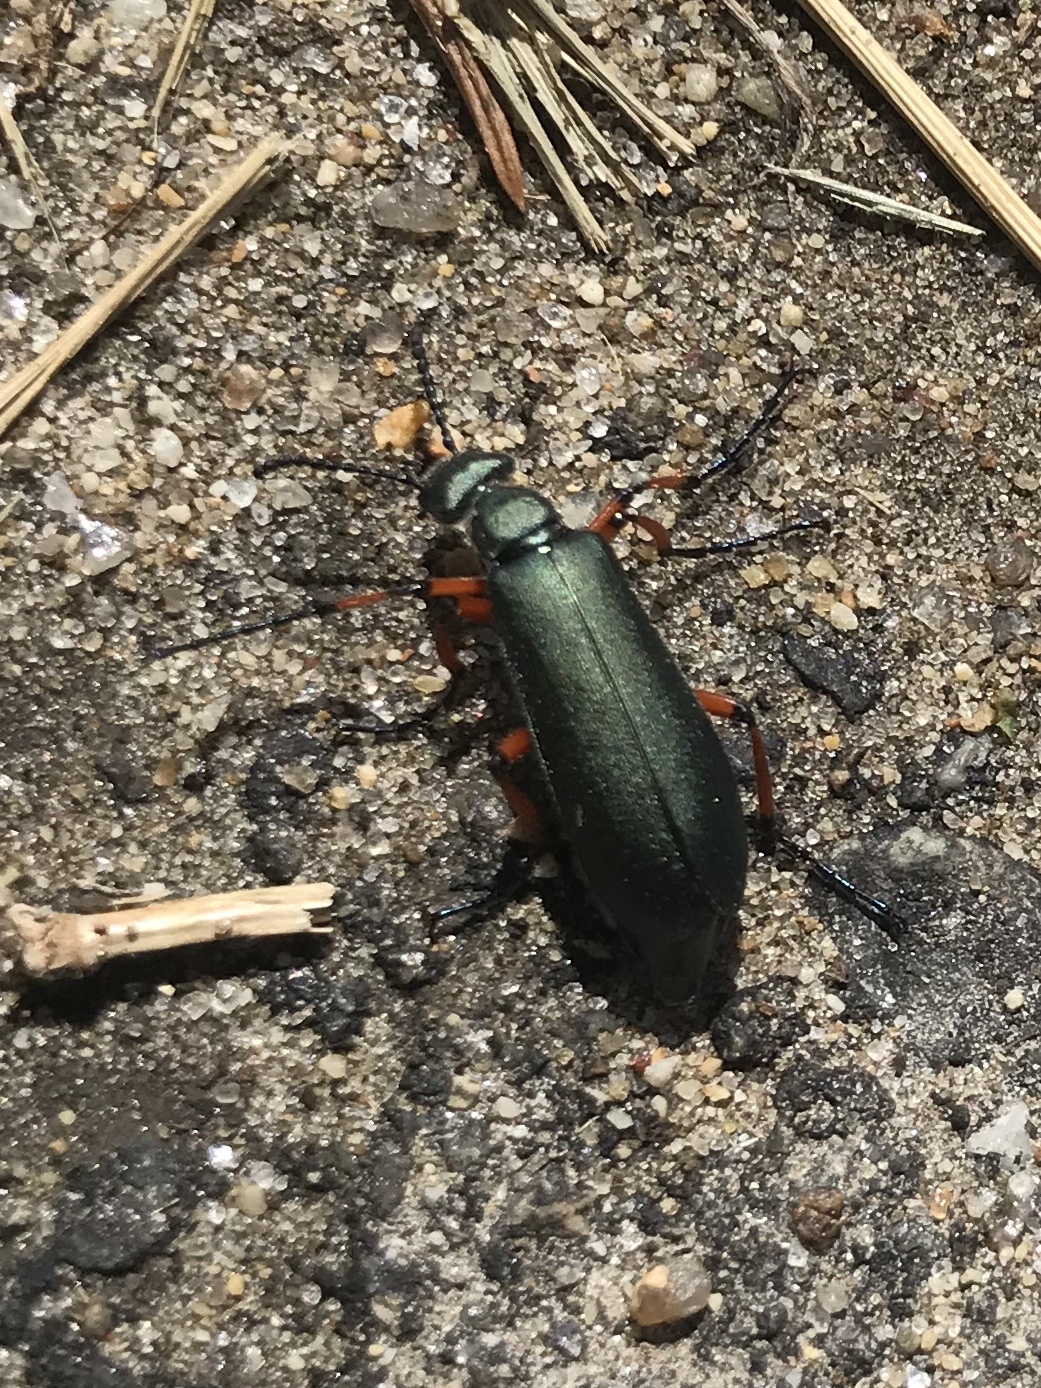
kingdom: Animalia
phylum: Arthropoda
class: Insecta
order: Coleoptera
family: Meloidae
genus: Lytta
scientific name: Lytta sayi
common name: Say's blister beetle
